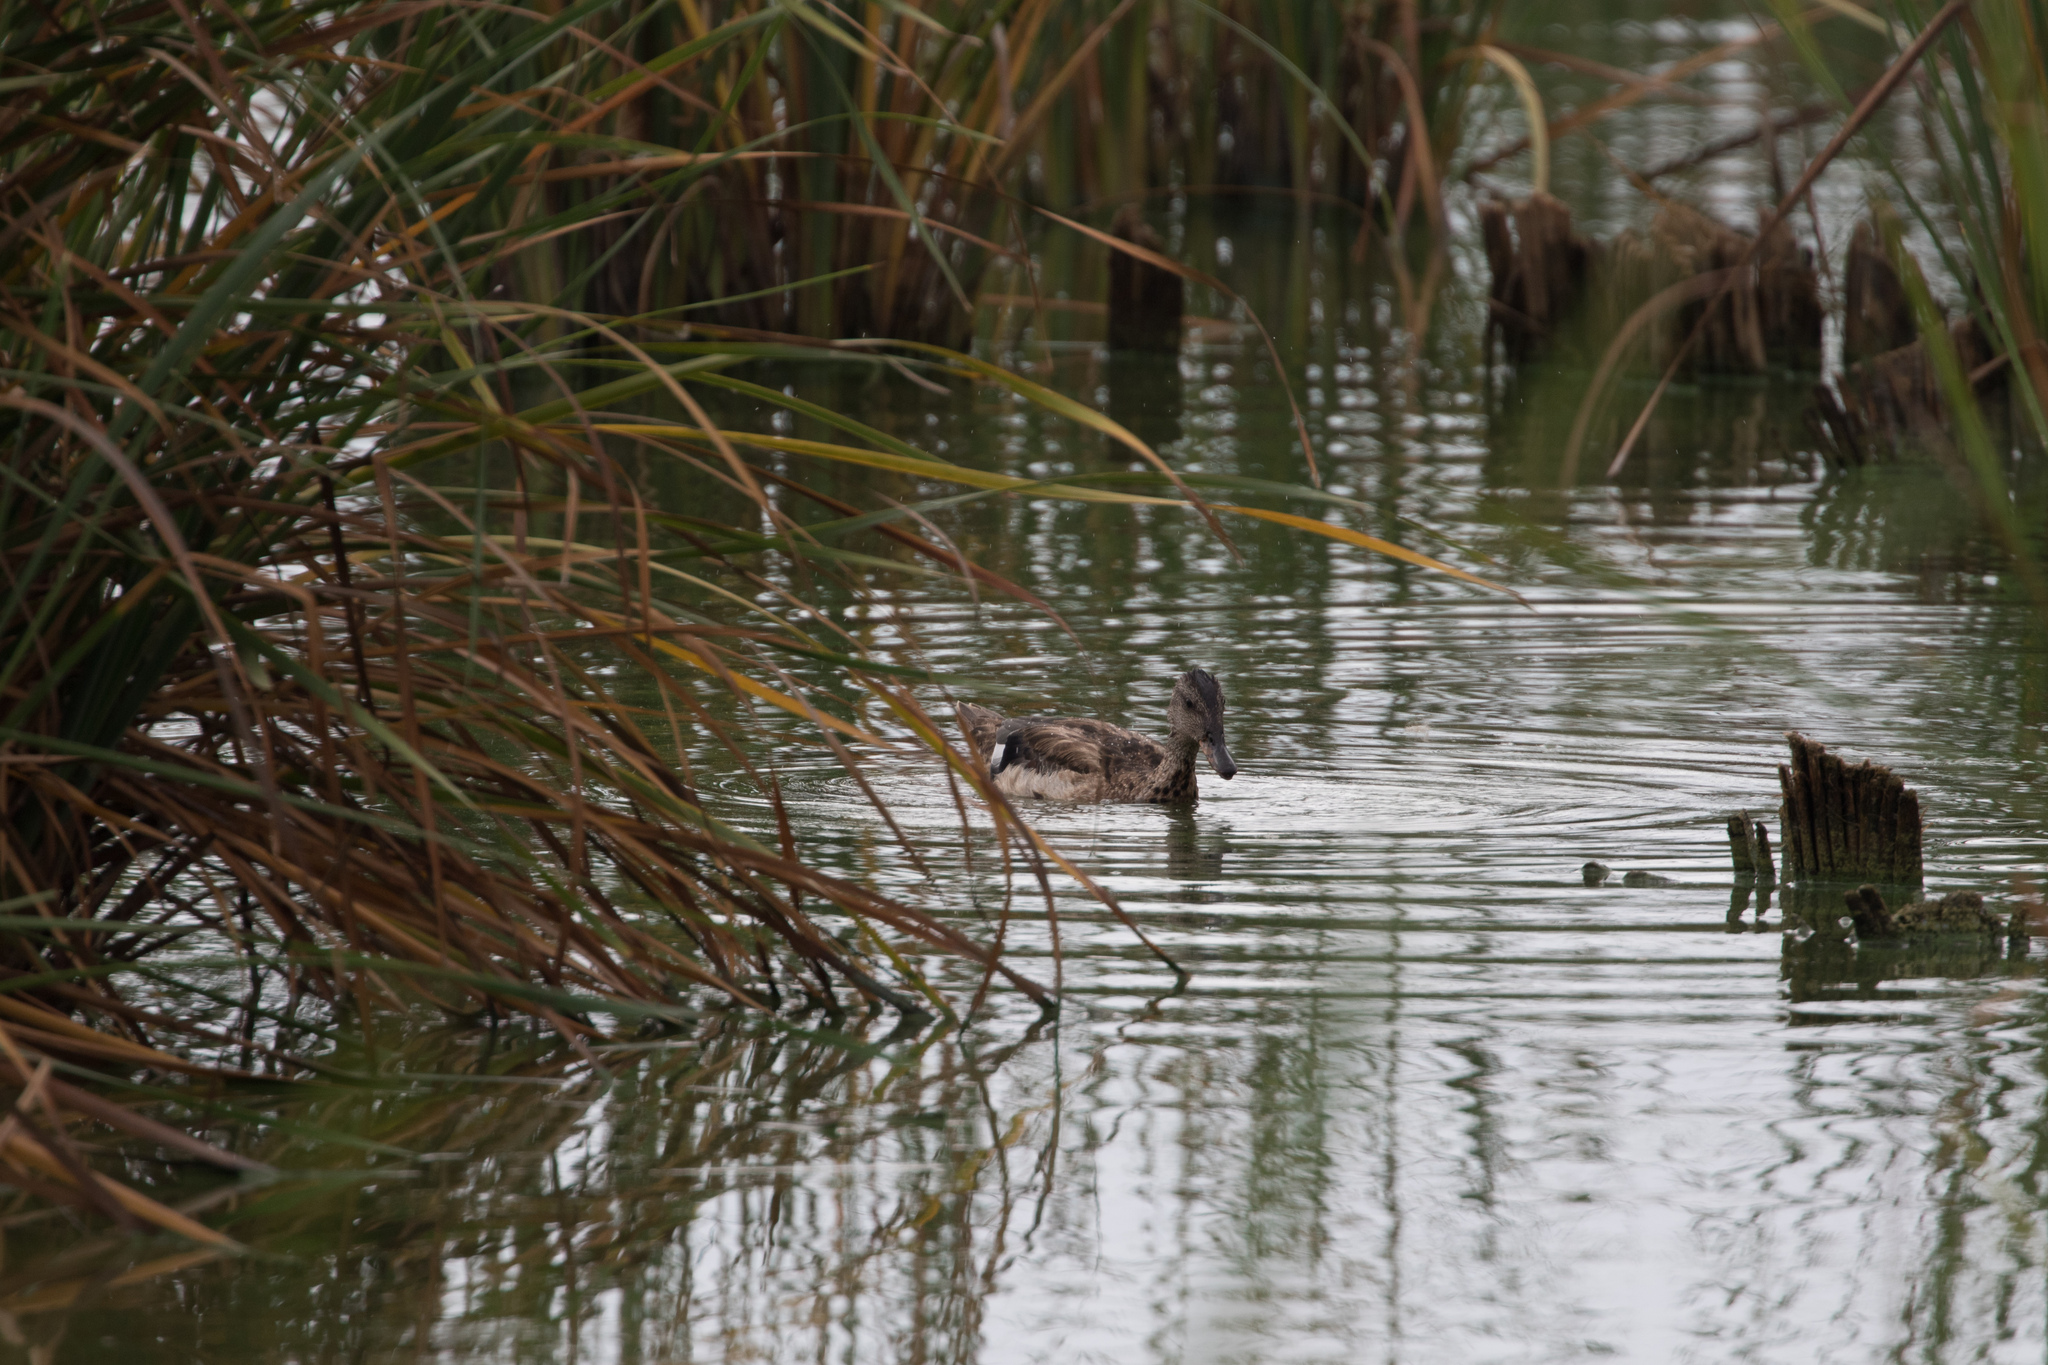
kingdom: Animalia
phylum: Chordata
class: Aves
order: Anseriformes
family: Anatidae
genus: Mareca
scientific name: Mareca strepera
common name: Gadwall
